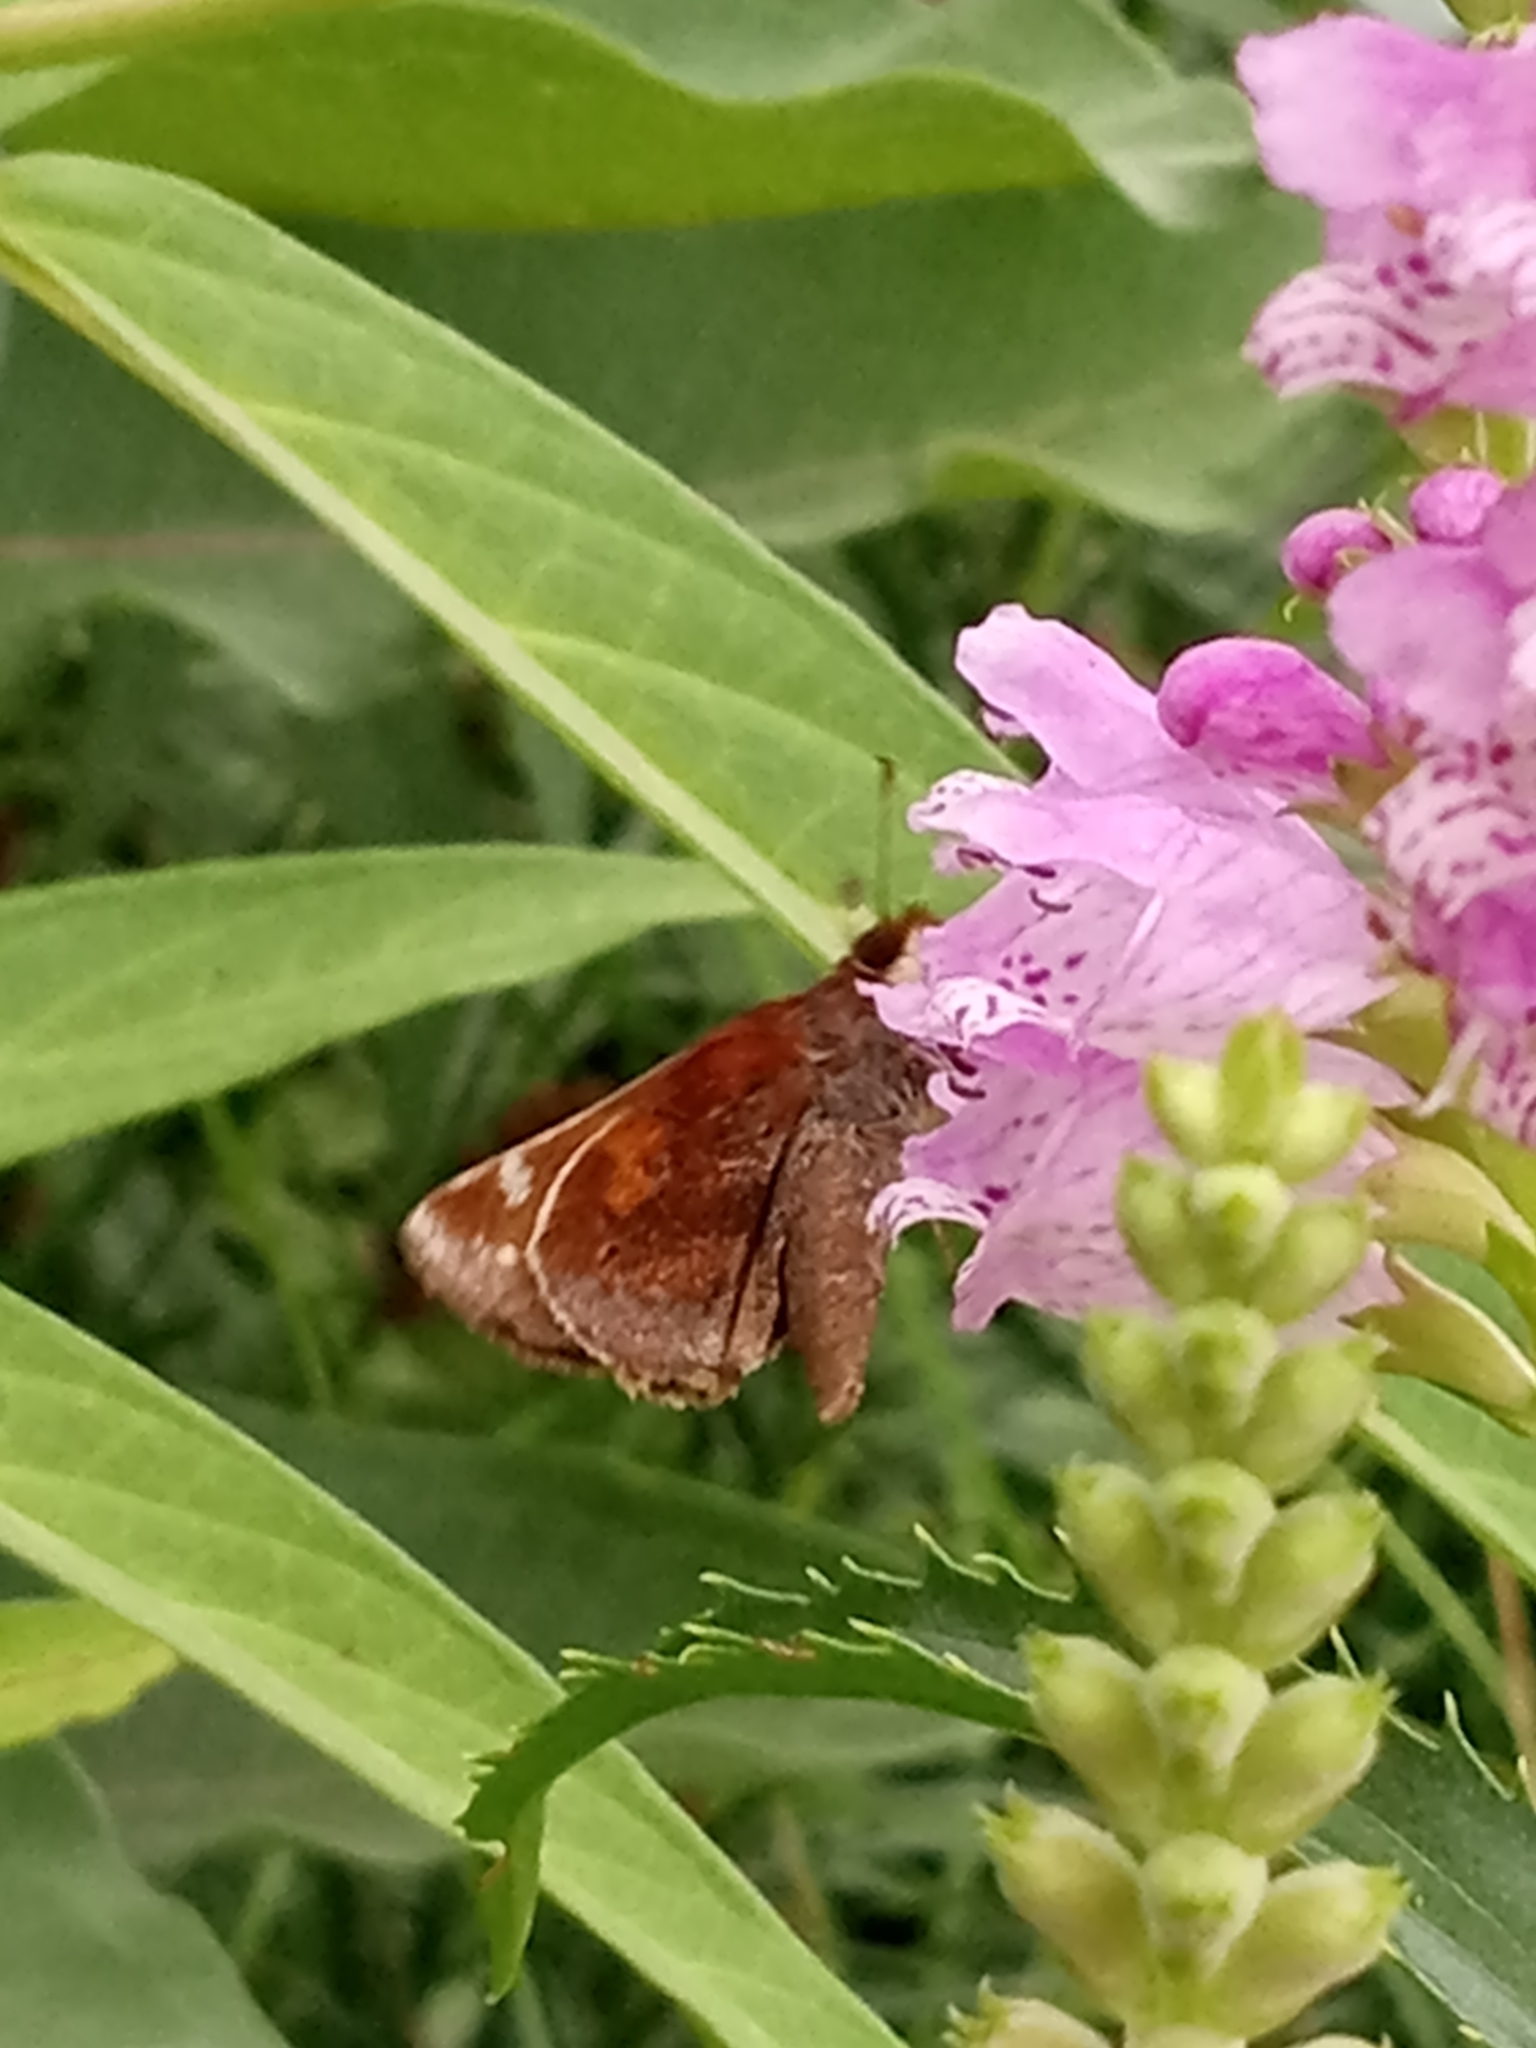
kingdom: Animalia
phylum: Arthropoda
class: Insecta
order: Lepidoptera
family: Hesperiidae
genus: Lon
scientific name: Lon zabulon
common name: Zabulon skipper
